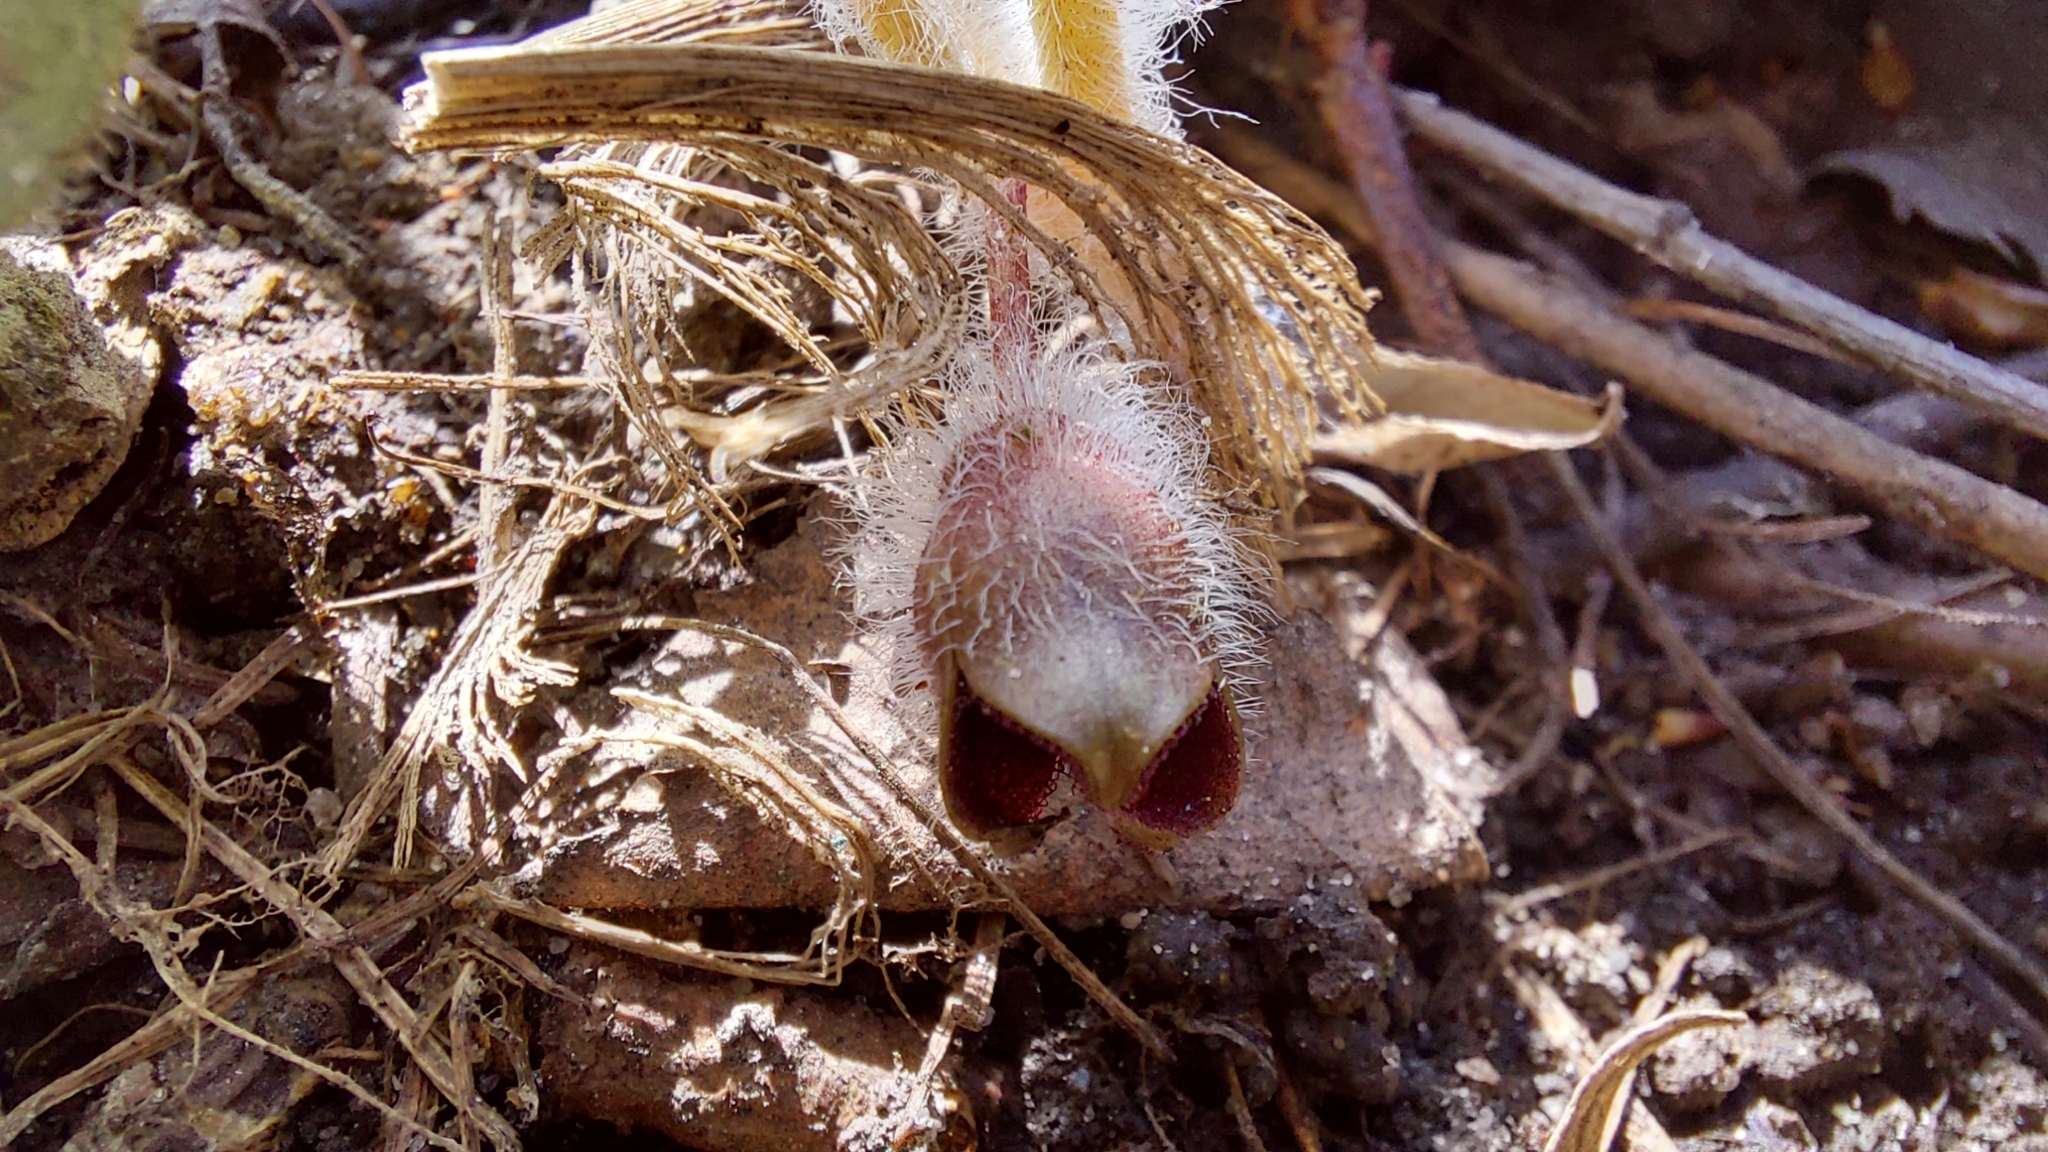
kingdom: Plantae
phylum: Tracheophyta
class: Magnoliopsida
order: Piperales
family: Aristolochiaceae
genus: Asarum
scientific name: Asarum europaeum
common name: Asarabacca
